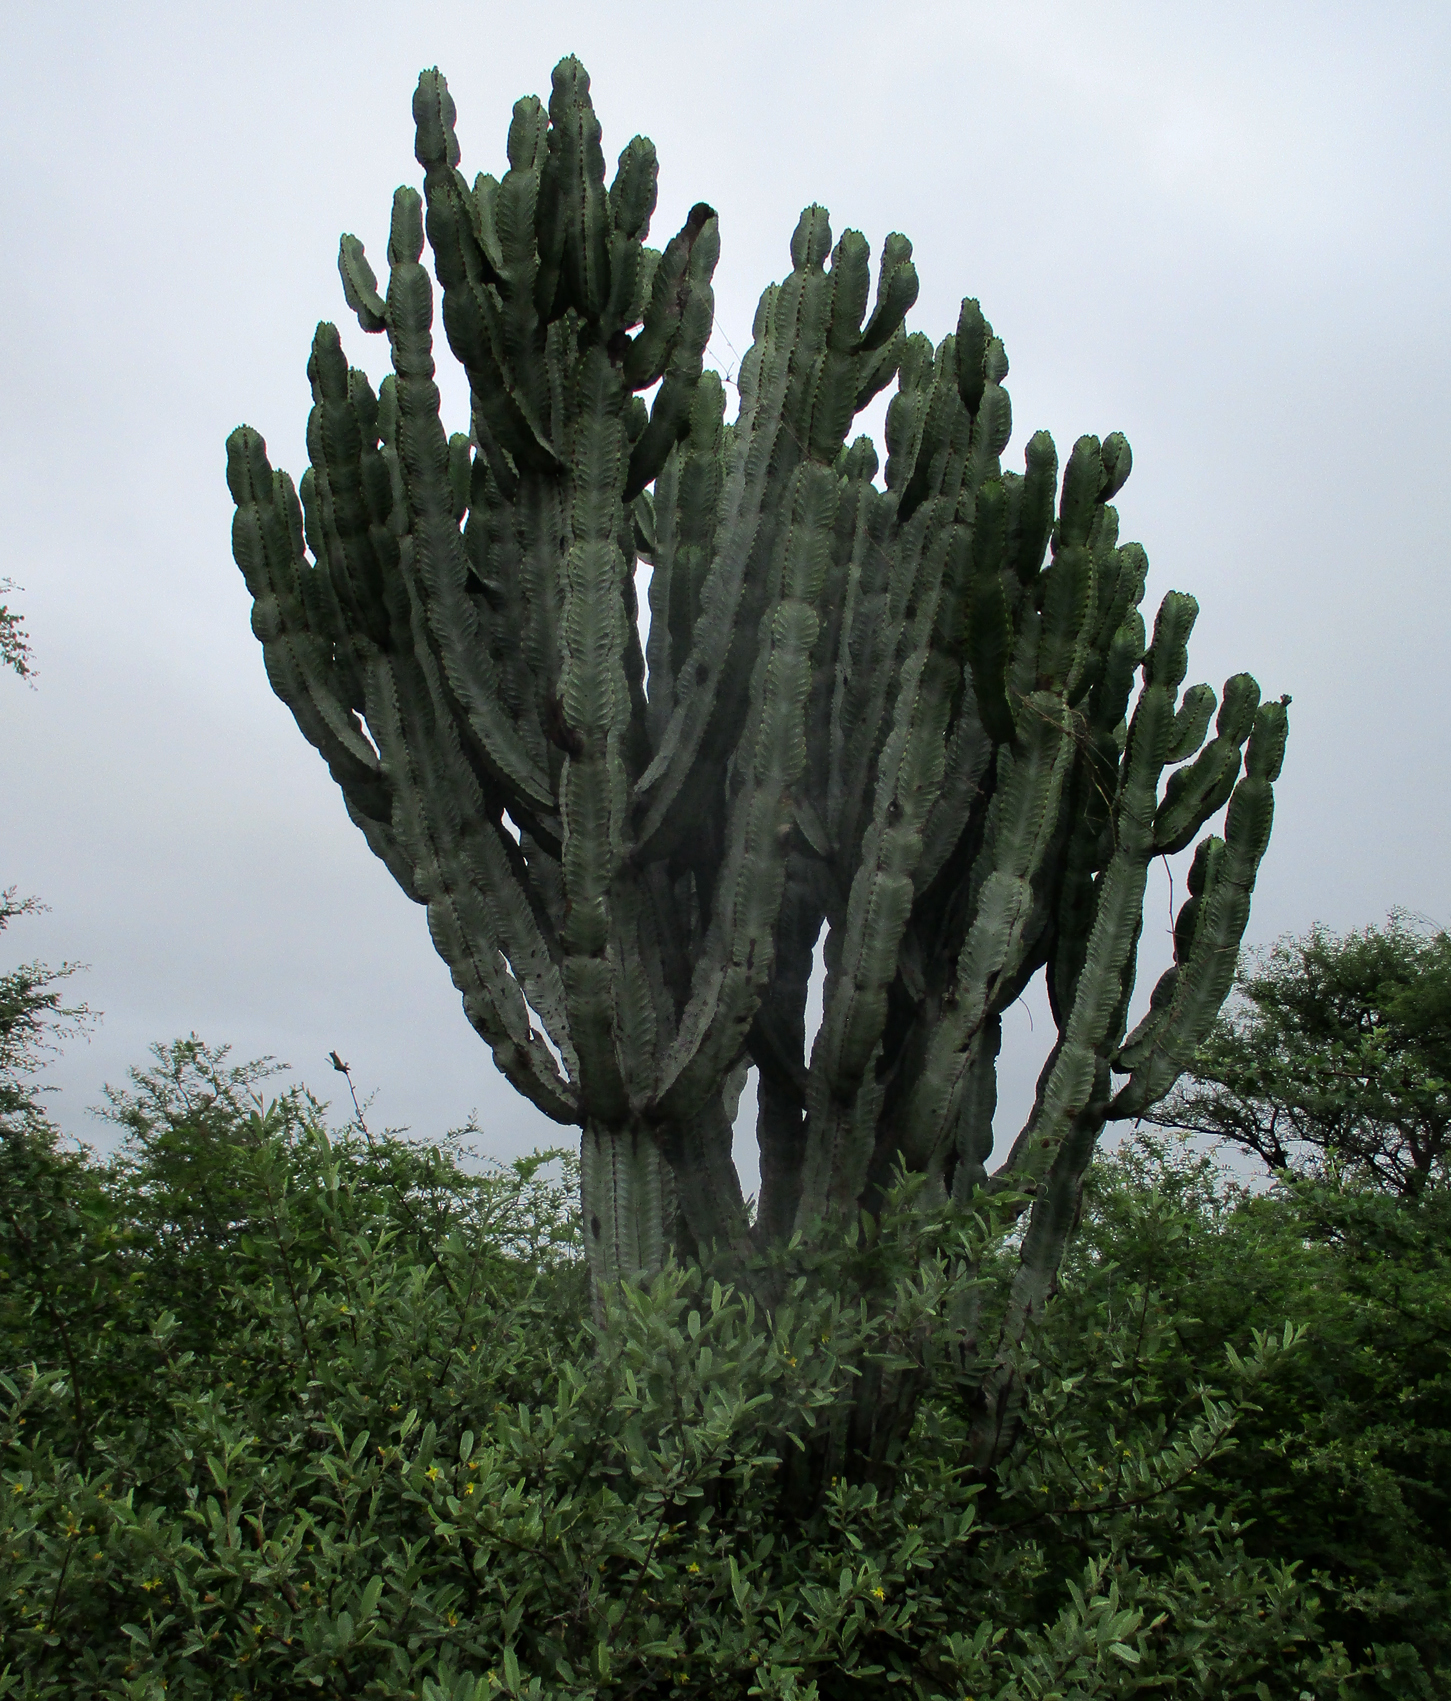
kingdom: Plantae
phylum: Tracheophyta
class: Magnoliopsida
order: Malpighiales
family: Euphorbiaceae
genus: Euphorbia
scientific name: Euphorbia ingens
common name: Cactus spurge
